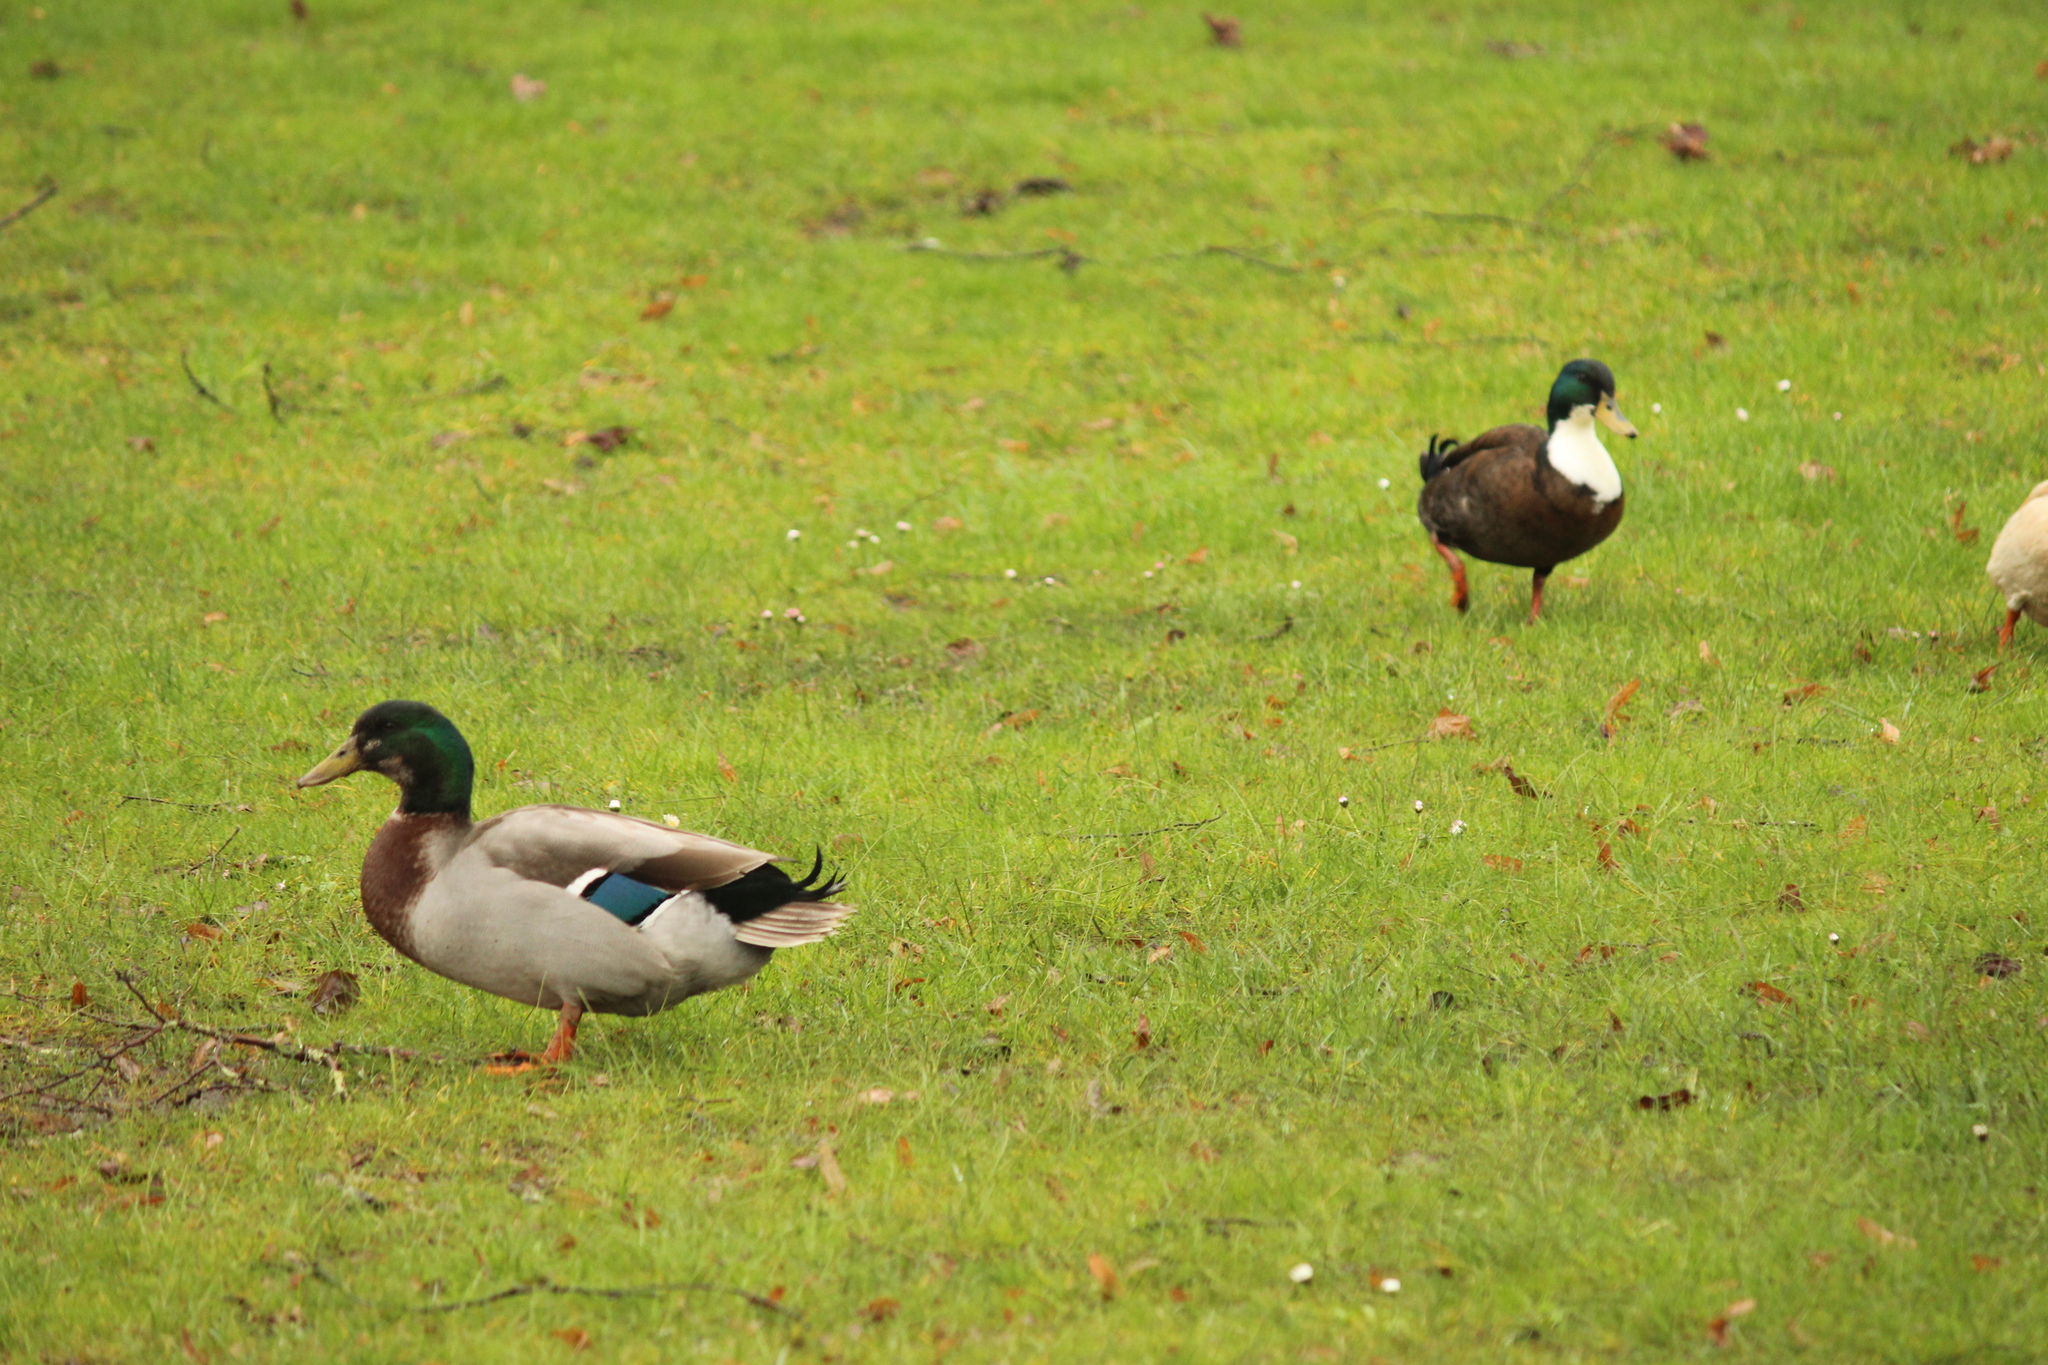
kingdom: Animalia
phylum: Chordata
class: Aves
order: Anseriformes
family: Anatidae
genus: Anas
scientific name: Anas platyrhynchos
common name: Mallard
